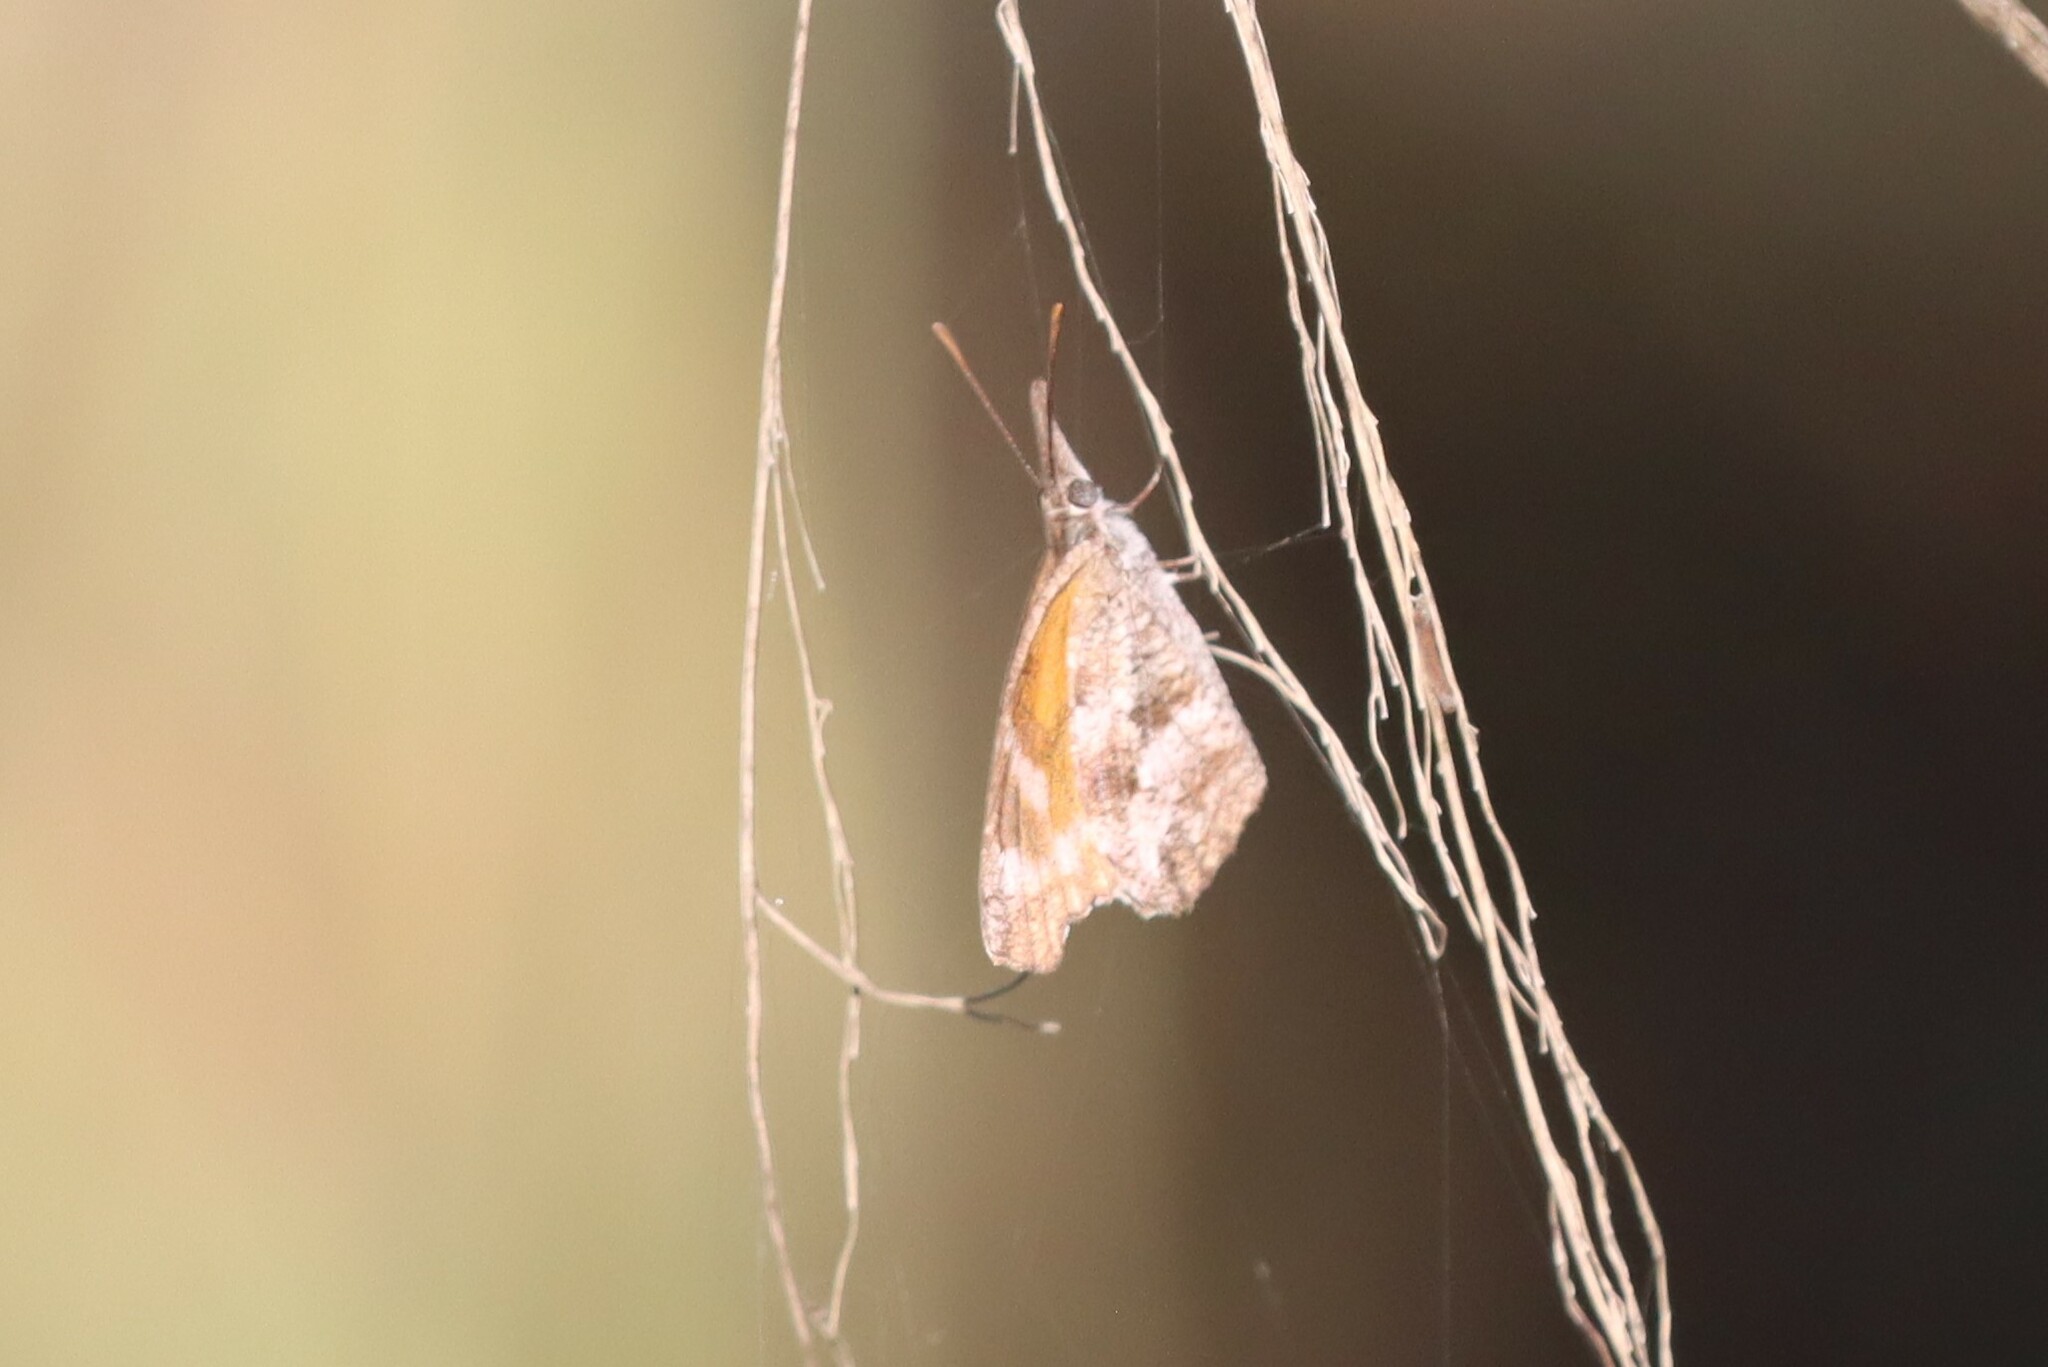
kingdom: Animalia
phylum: Arthropoda
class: Insecta
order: Lepidoptera
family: Nymphalidae
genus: Libytheana
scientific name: Libytheana carinenta
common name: American snout
